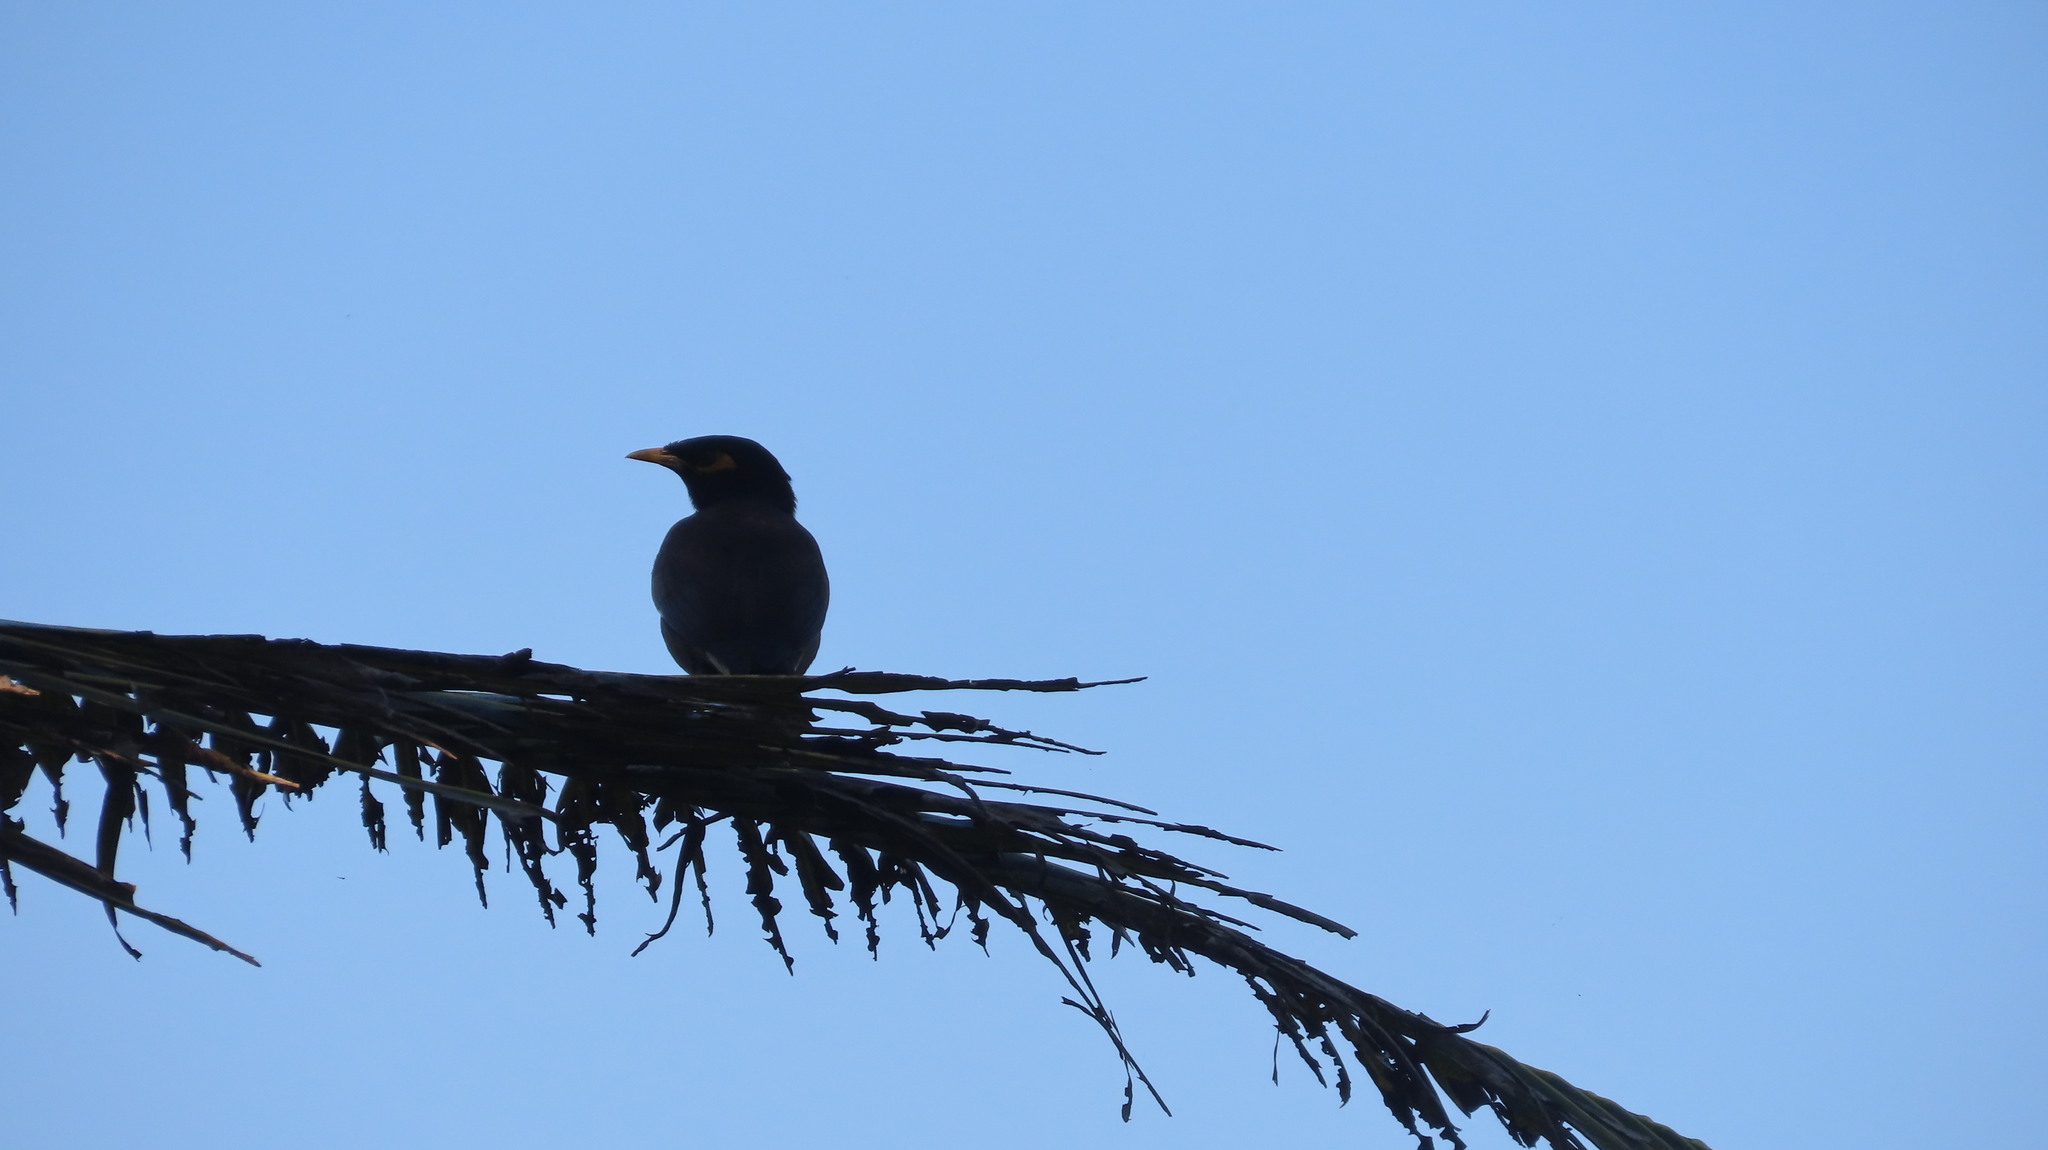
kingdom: Animalia
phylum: Chordata
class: Aves
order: Passeriformes
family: Sturnidae
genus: Acridotheres
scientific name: Acridotheres tristis
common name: Common myna
